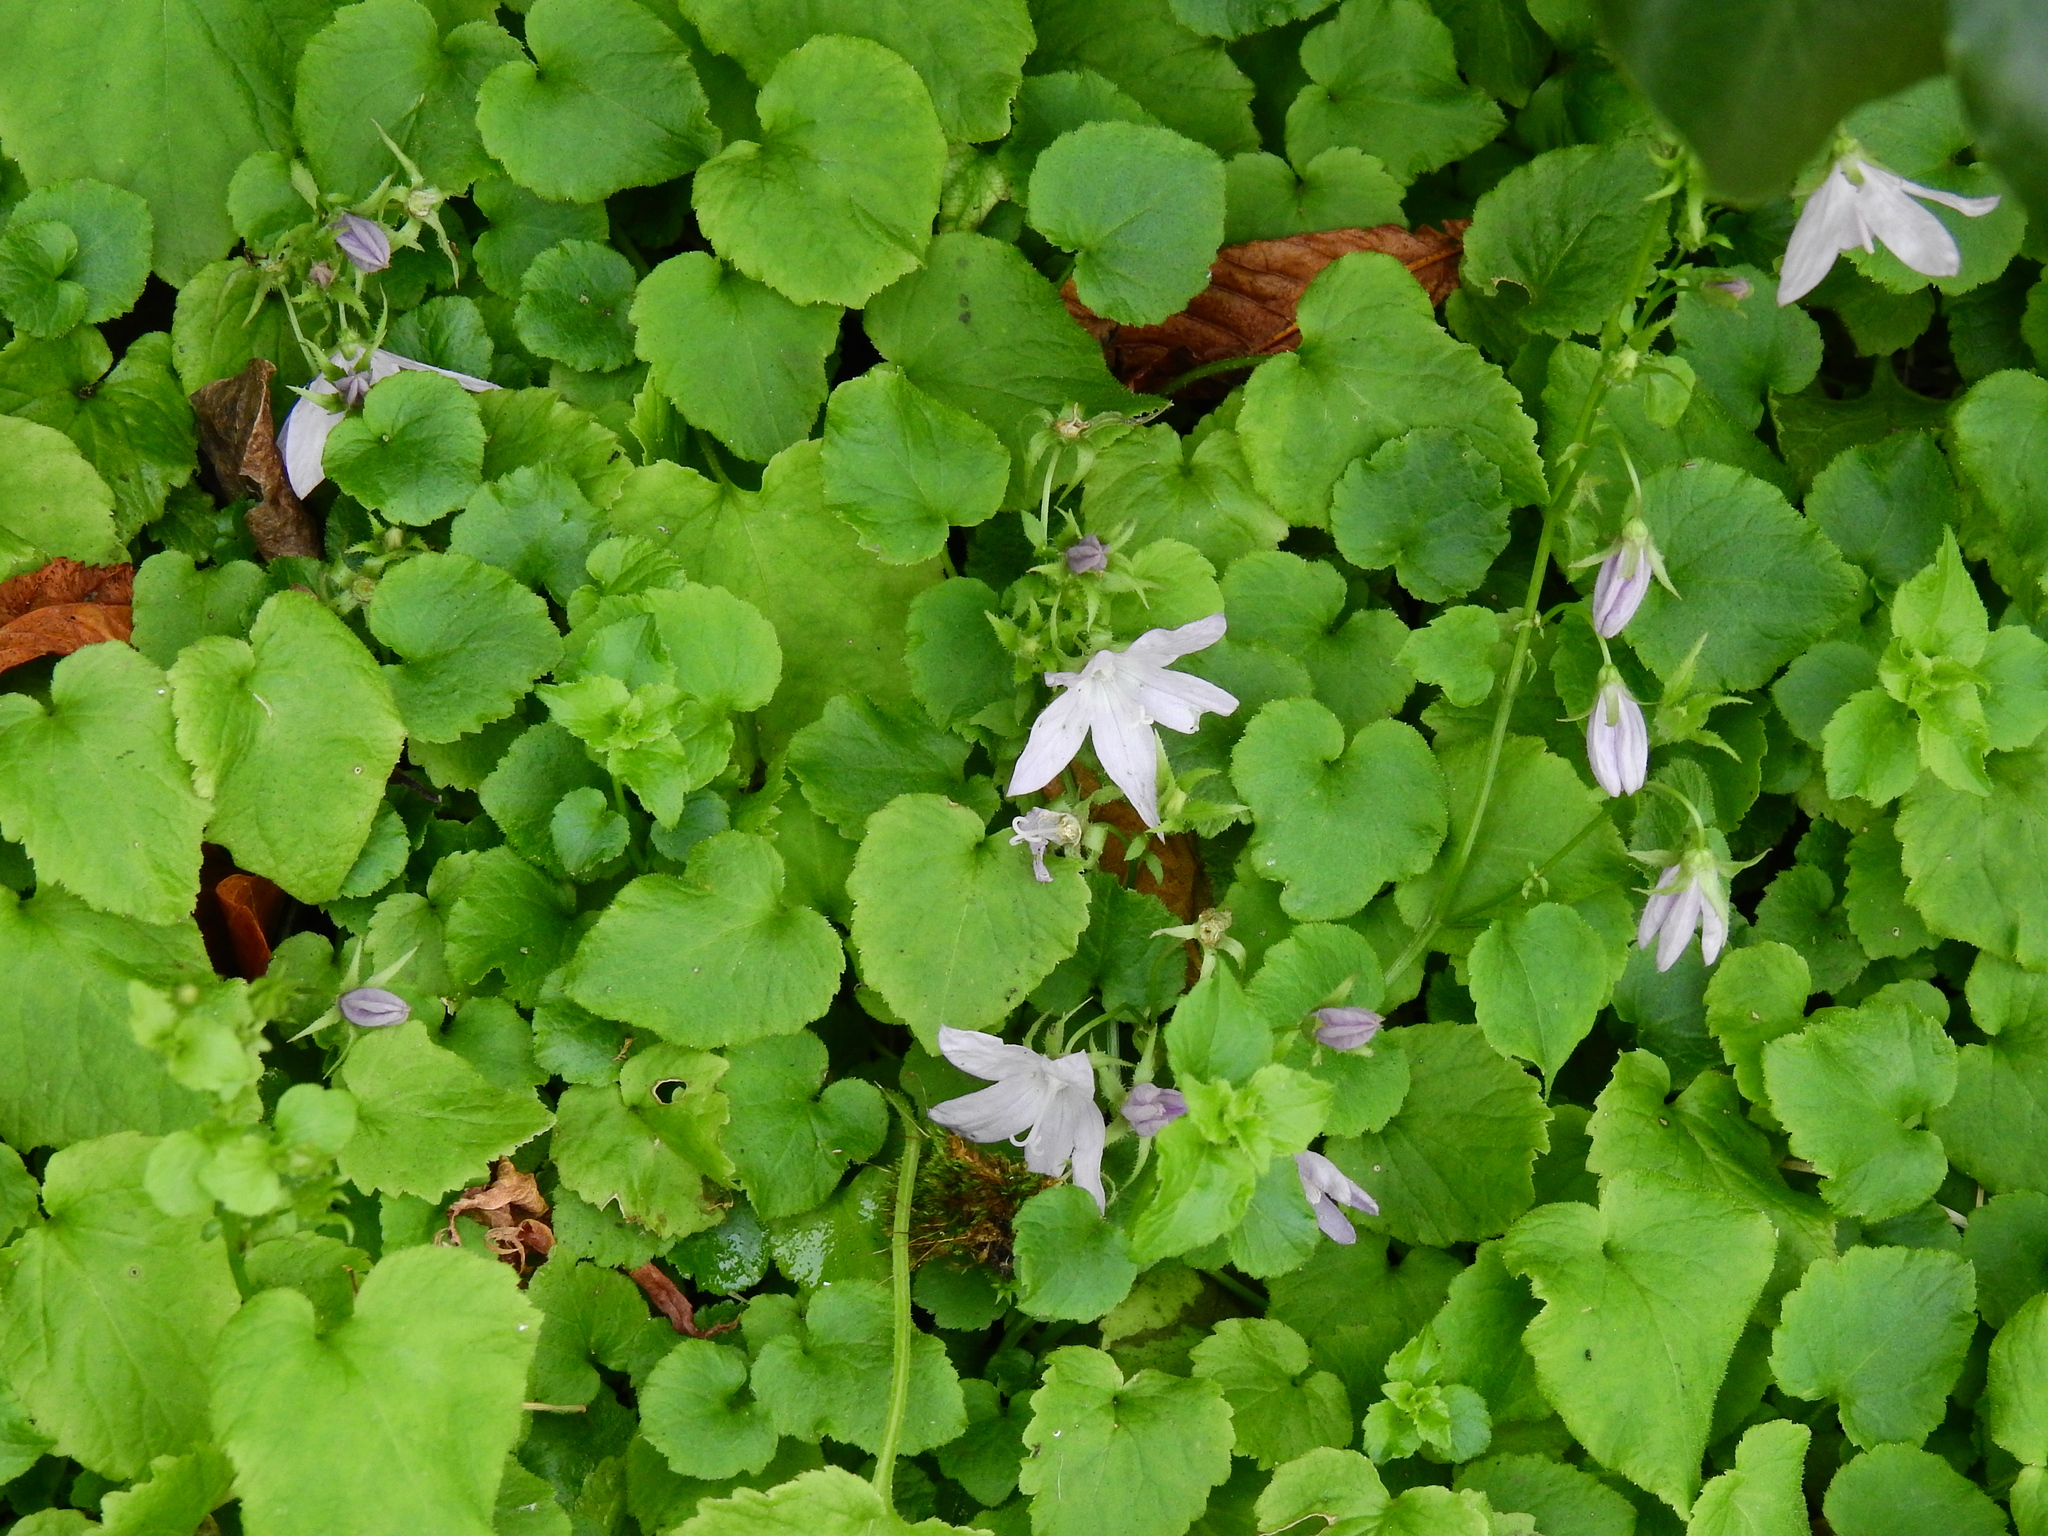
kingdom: Plantae
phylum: Tracheophyta
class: Magnoliopsida
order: Asterales
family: Campanulaceae
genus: Campanula
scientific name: Campanula poscharskyana
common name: Trailing bellflower
